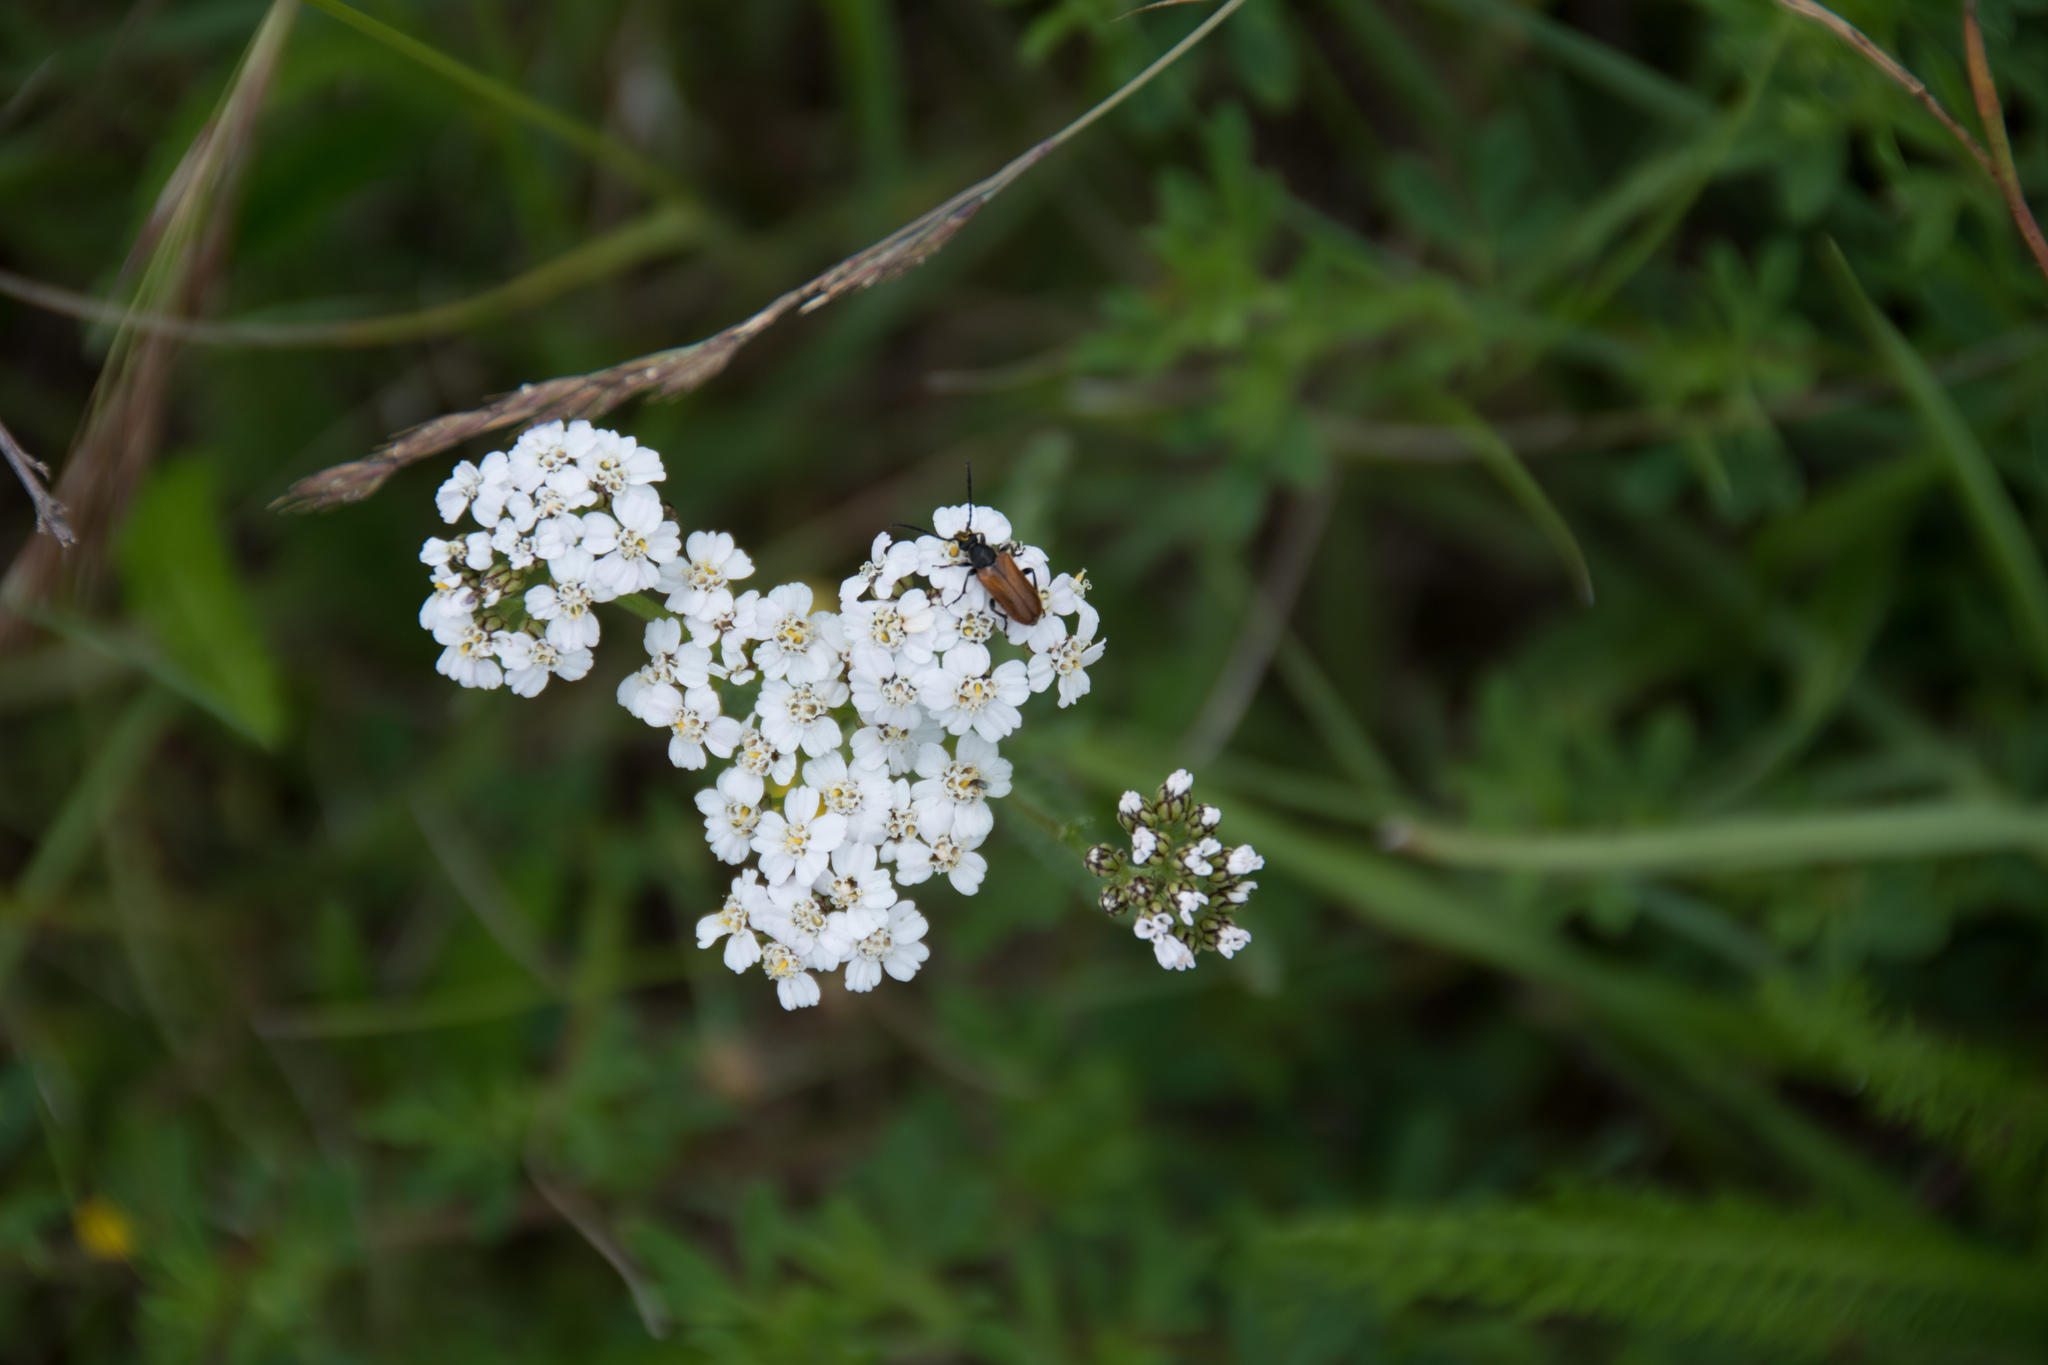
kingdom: Animalia
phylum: Arthropoda
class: Insecta
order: Coleoptera
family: Cerambycidae
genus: Pseudovadonia
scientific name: Pseudovadonia livida
